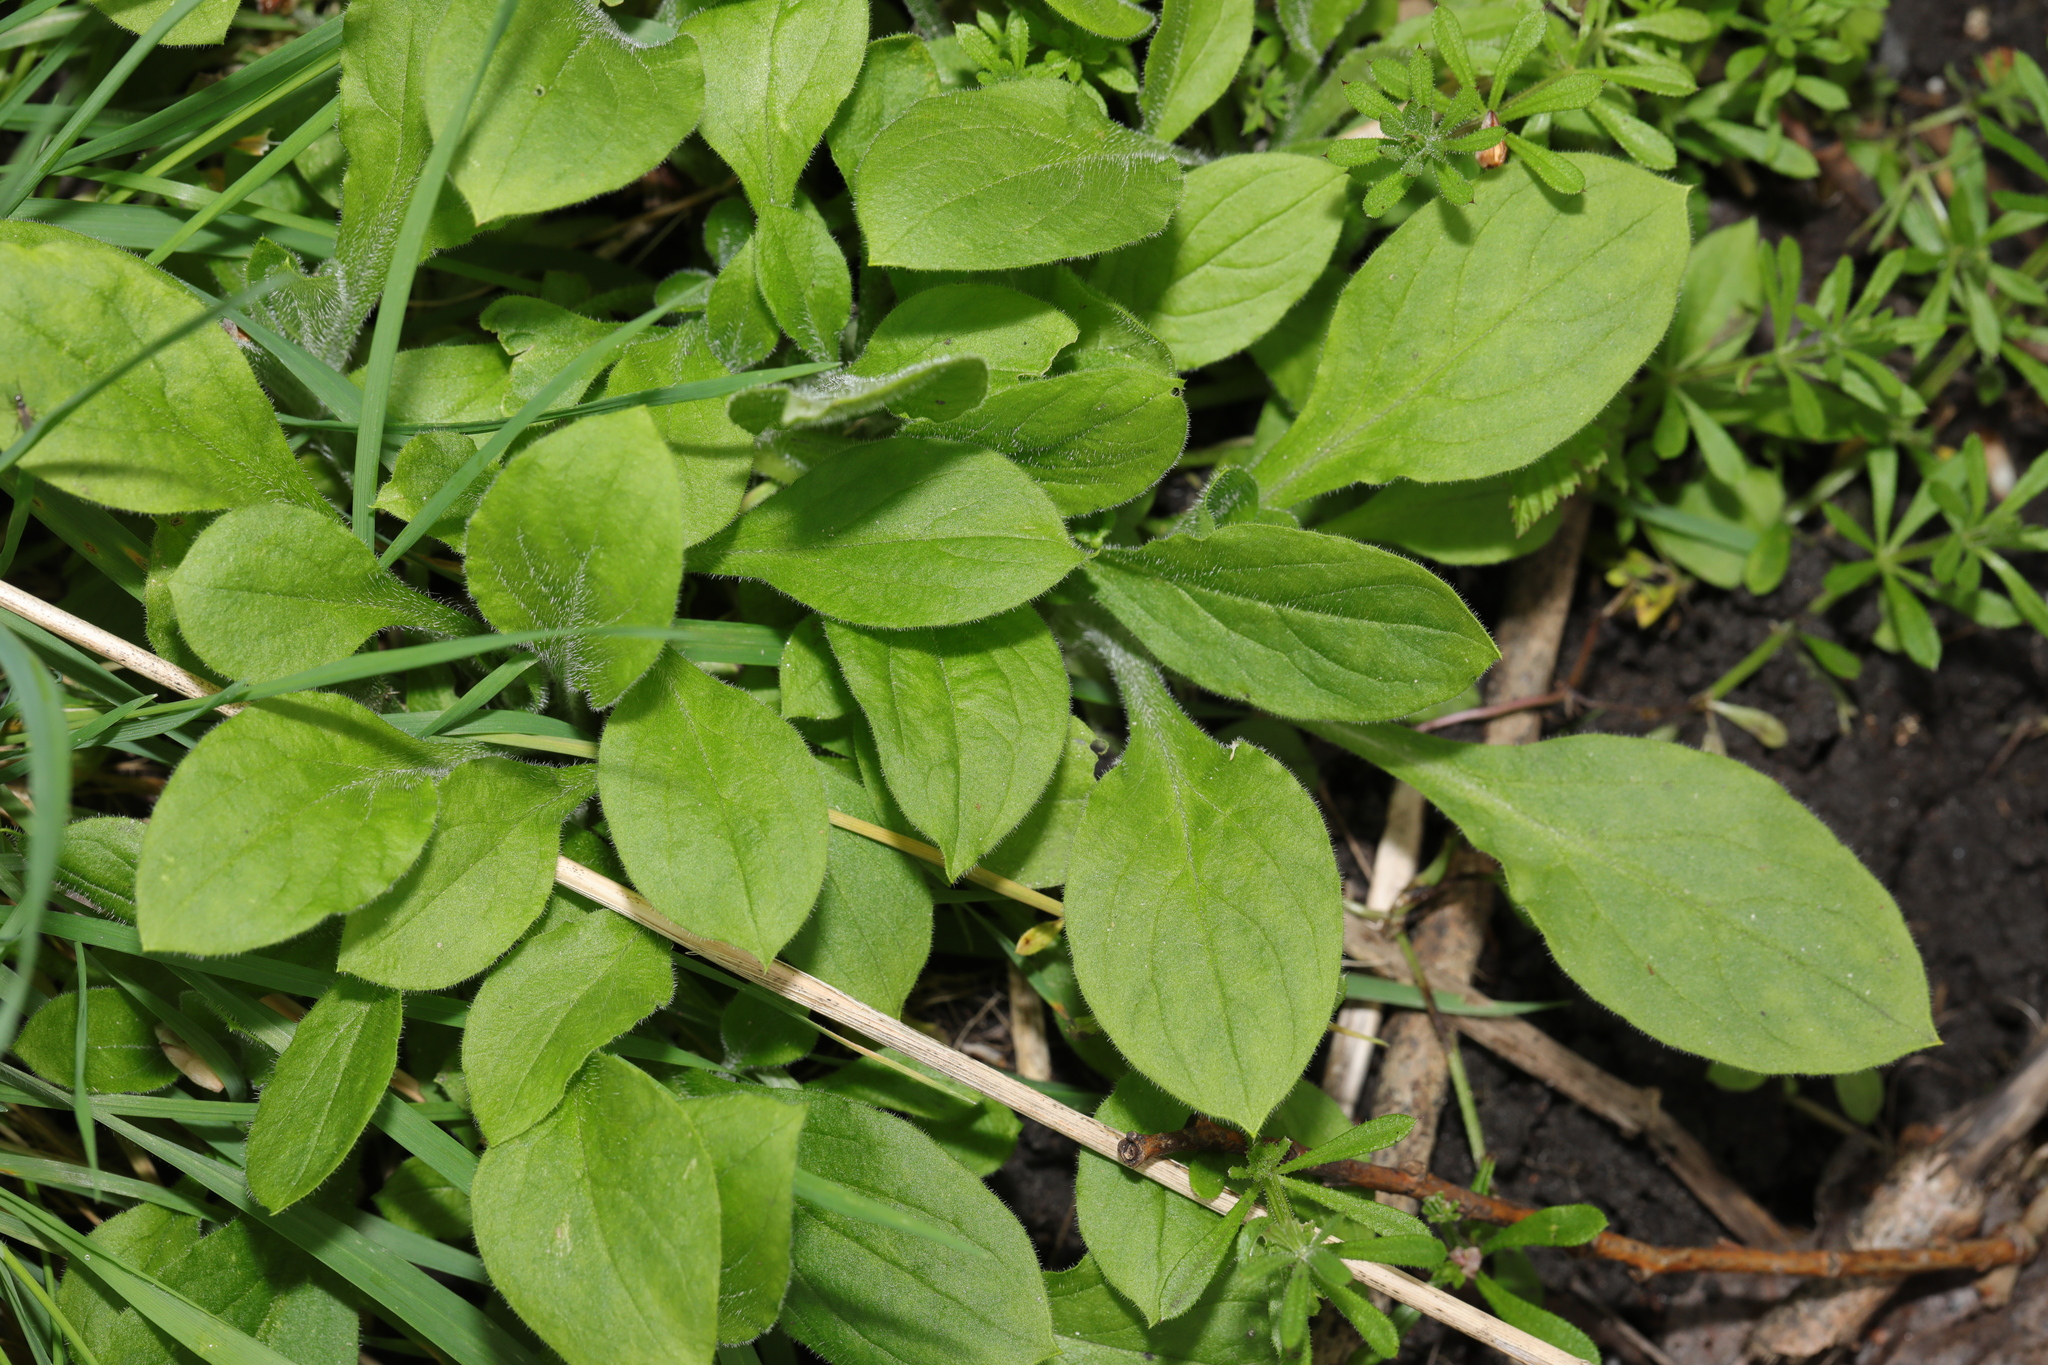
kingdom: Plantae
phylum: Tracheophyta
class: Magnoliopsida
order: Caryophyllales
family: Caryophyllaceae
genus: Silene
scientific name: Silene dioica
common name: Red campion
